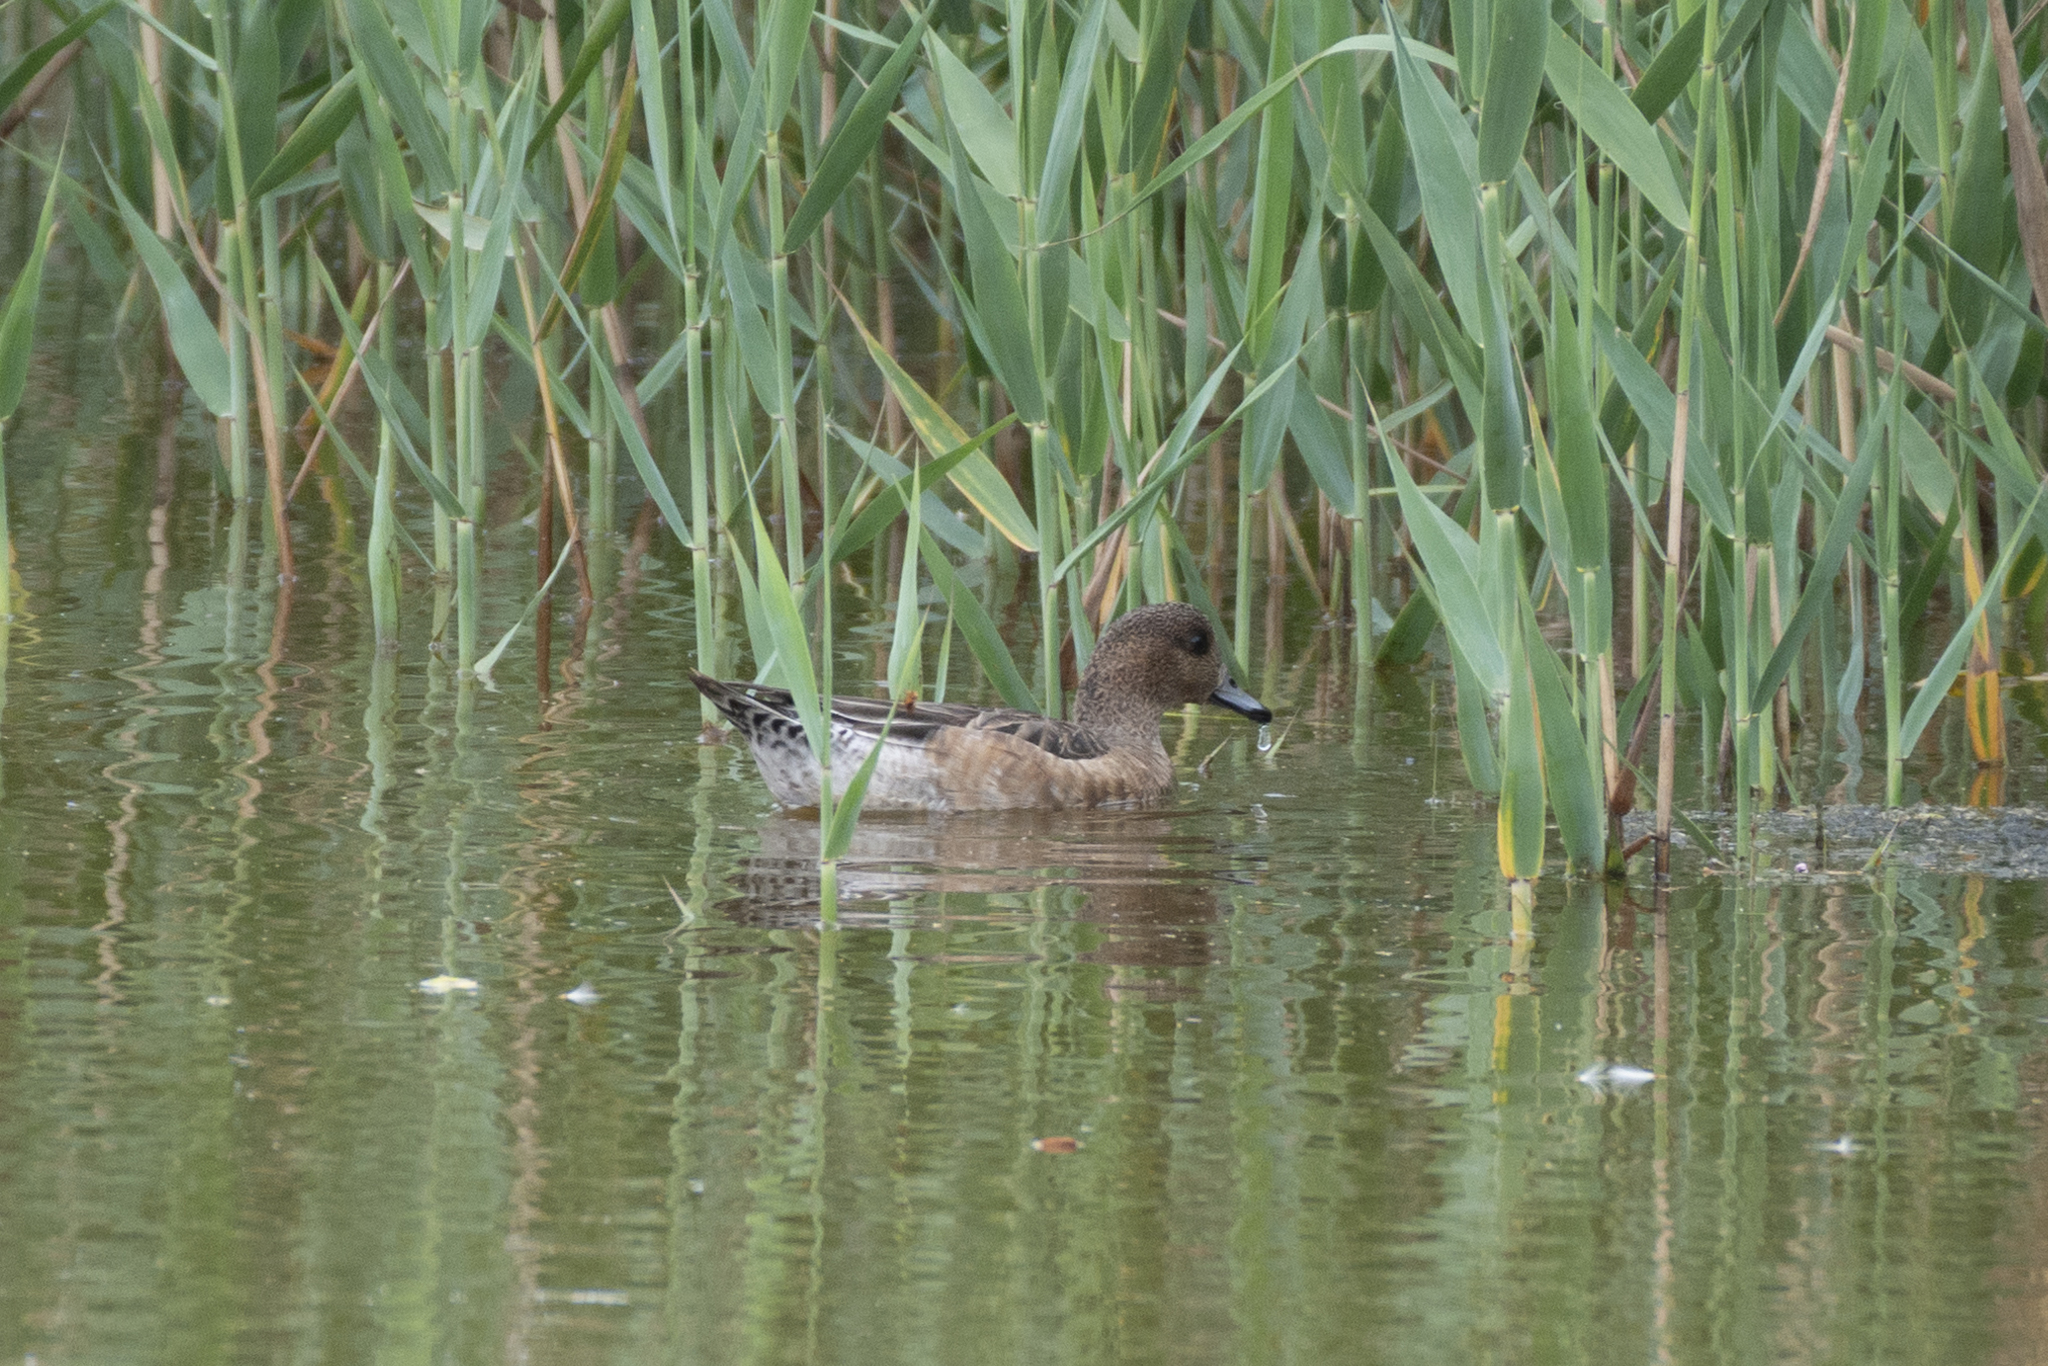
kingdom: Animalia
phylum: Chordata
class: Aves
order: Anseriformes
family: Anatidae
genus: Mareca
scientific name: Mareca penelope
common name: Eurasian wigeon
